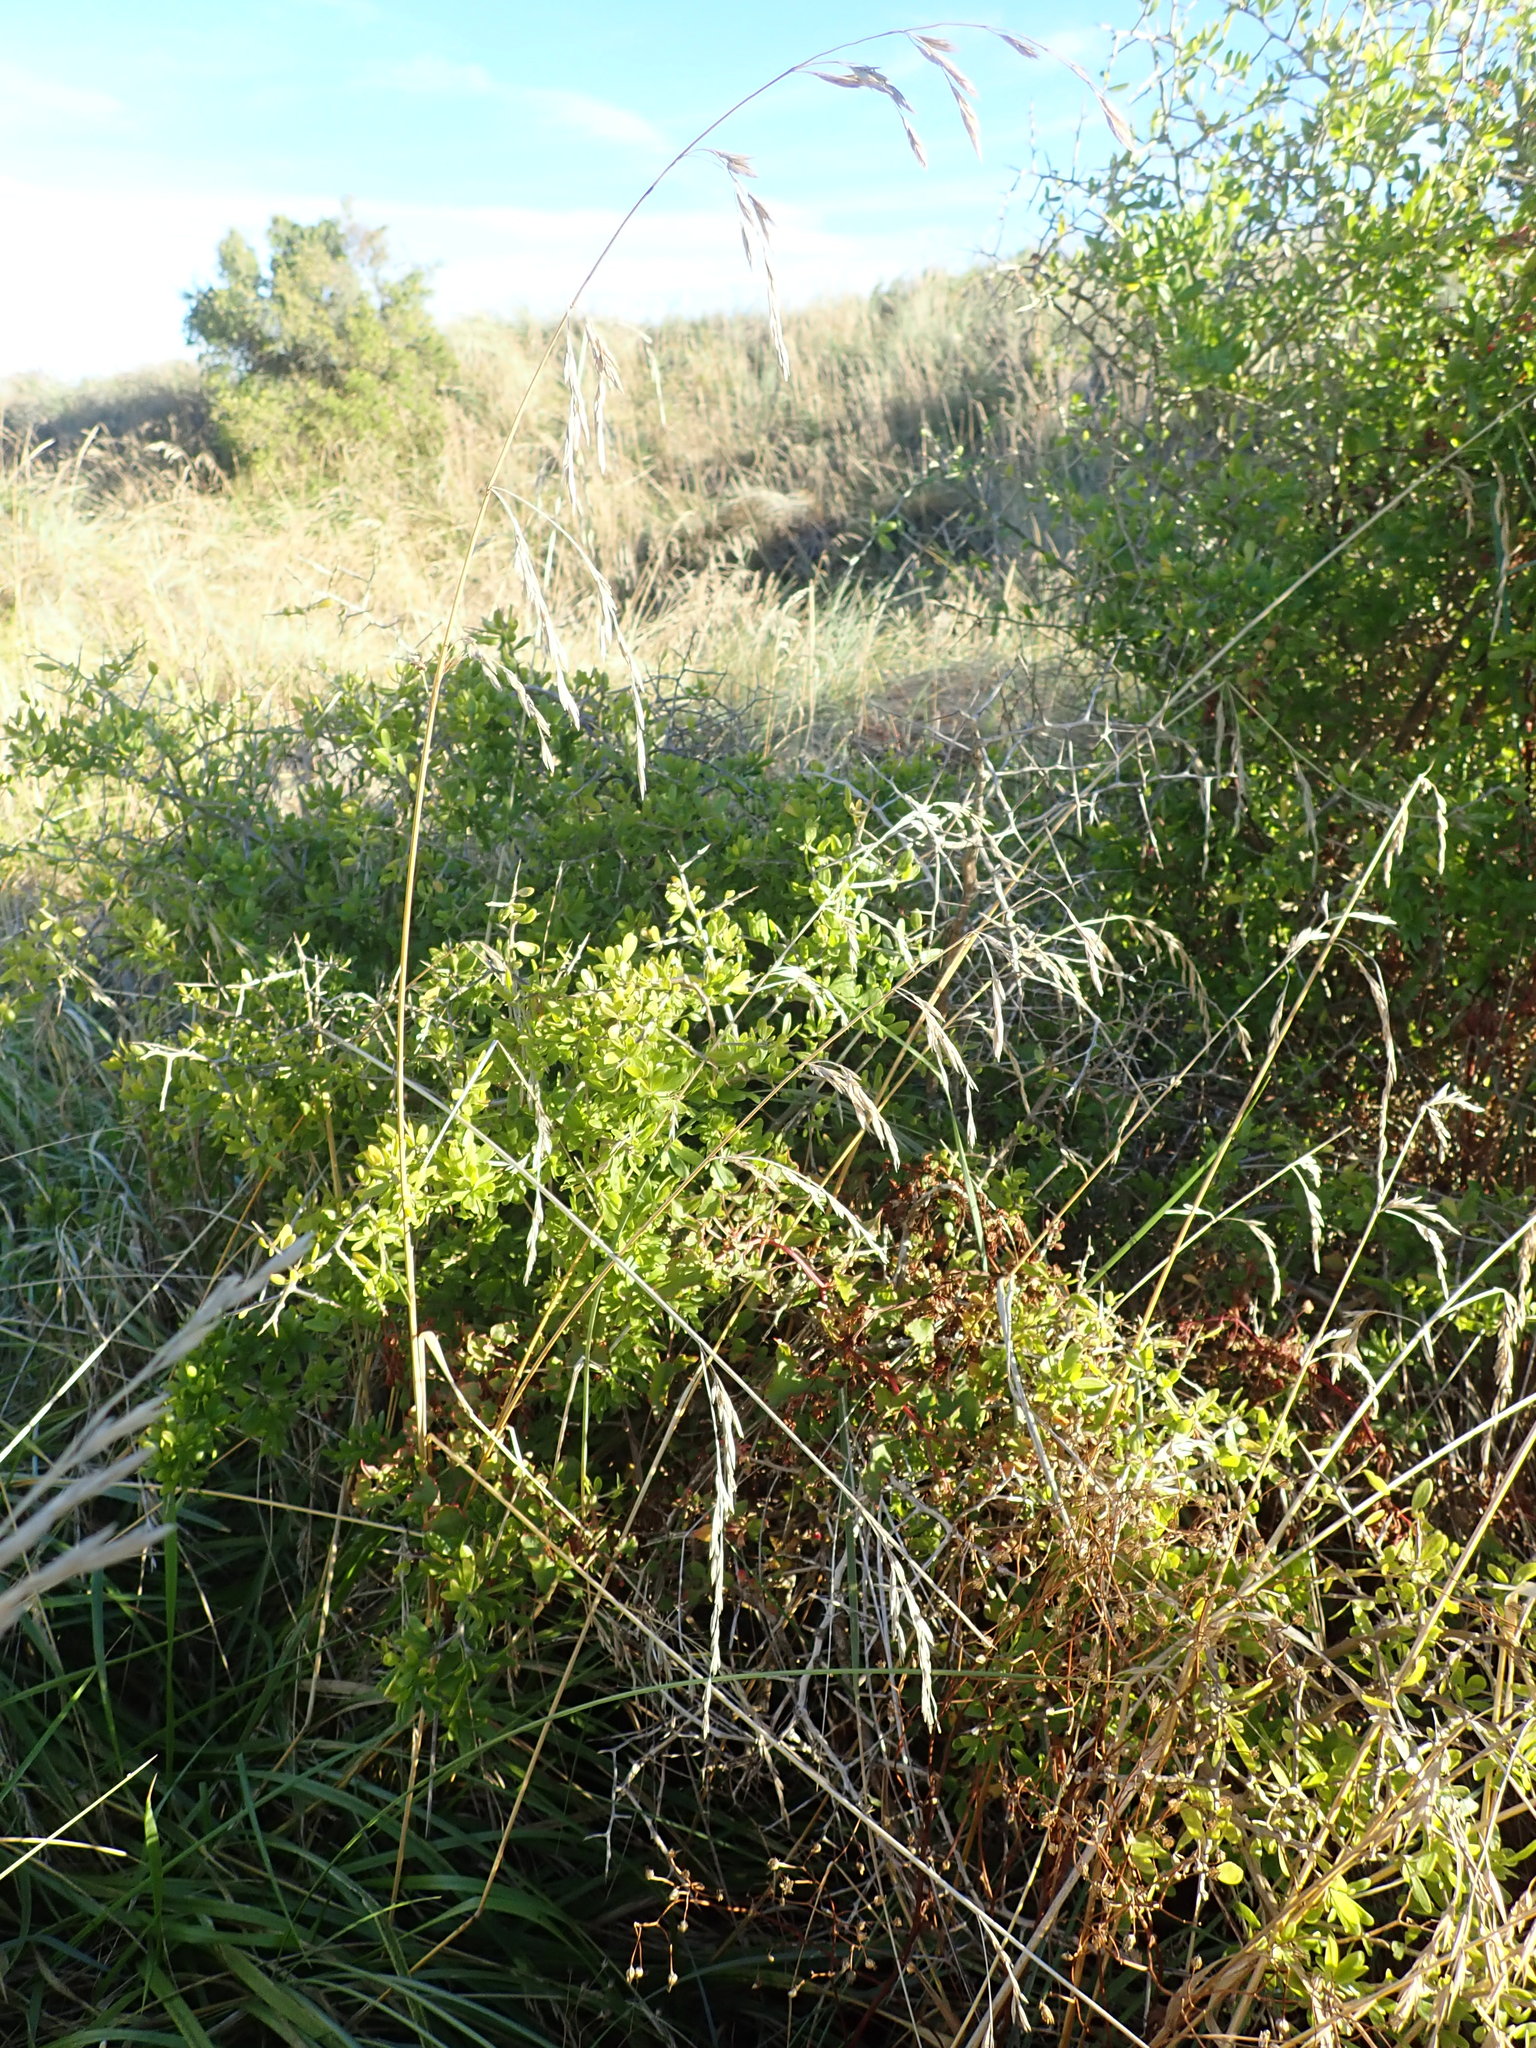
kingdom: Plantae
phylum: Tracheophyta
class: Magnoliopsida
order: Solanales
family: Solanaceae
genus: Lycium
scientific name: Lycium ferocissimum
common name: African boxthorn
